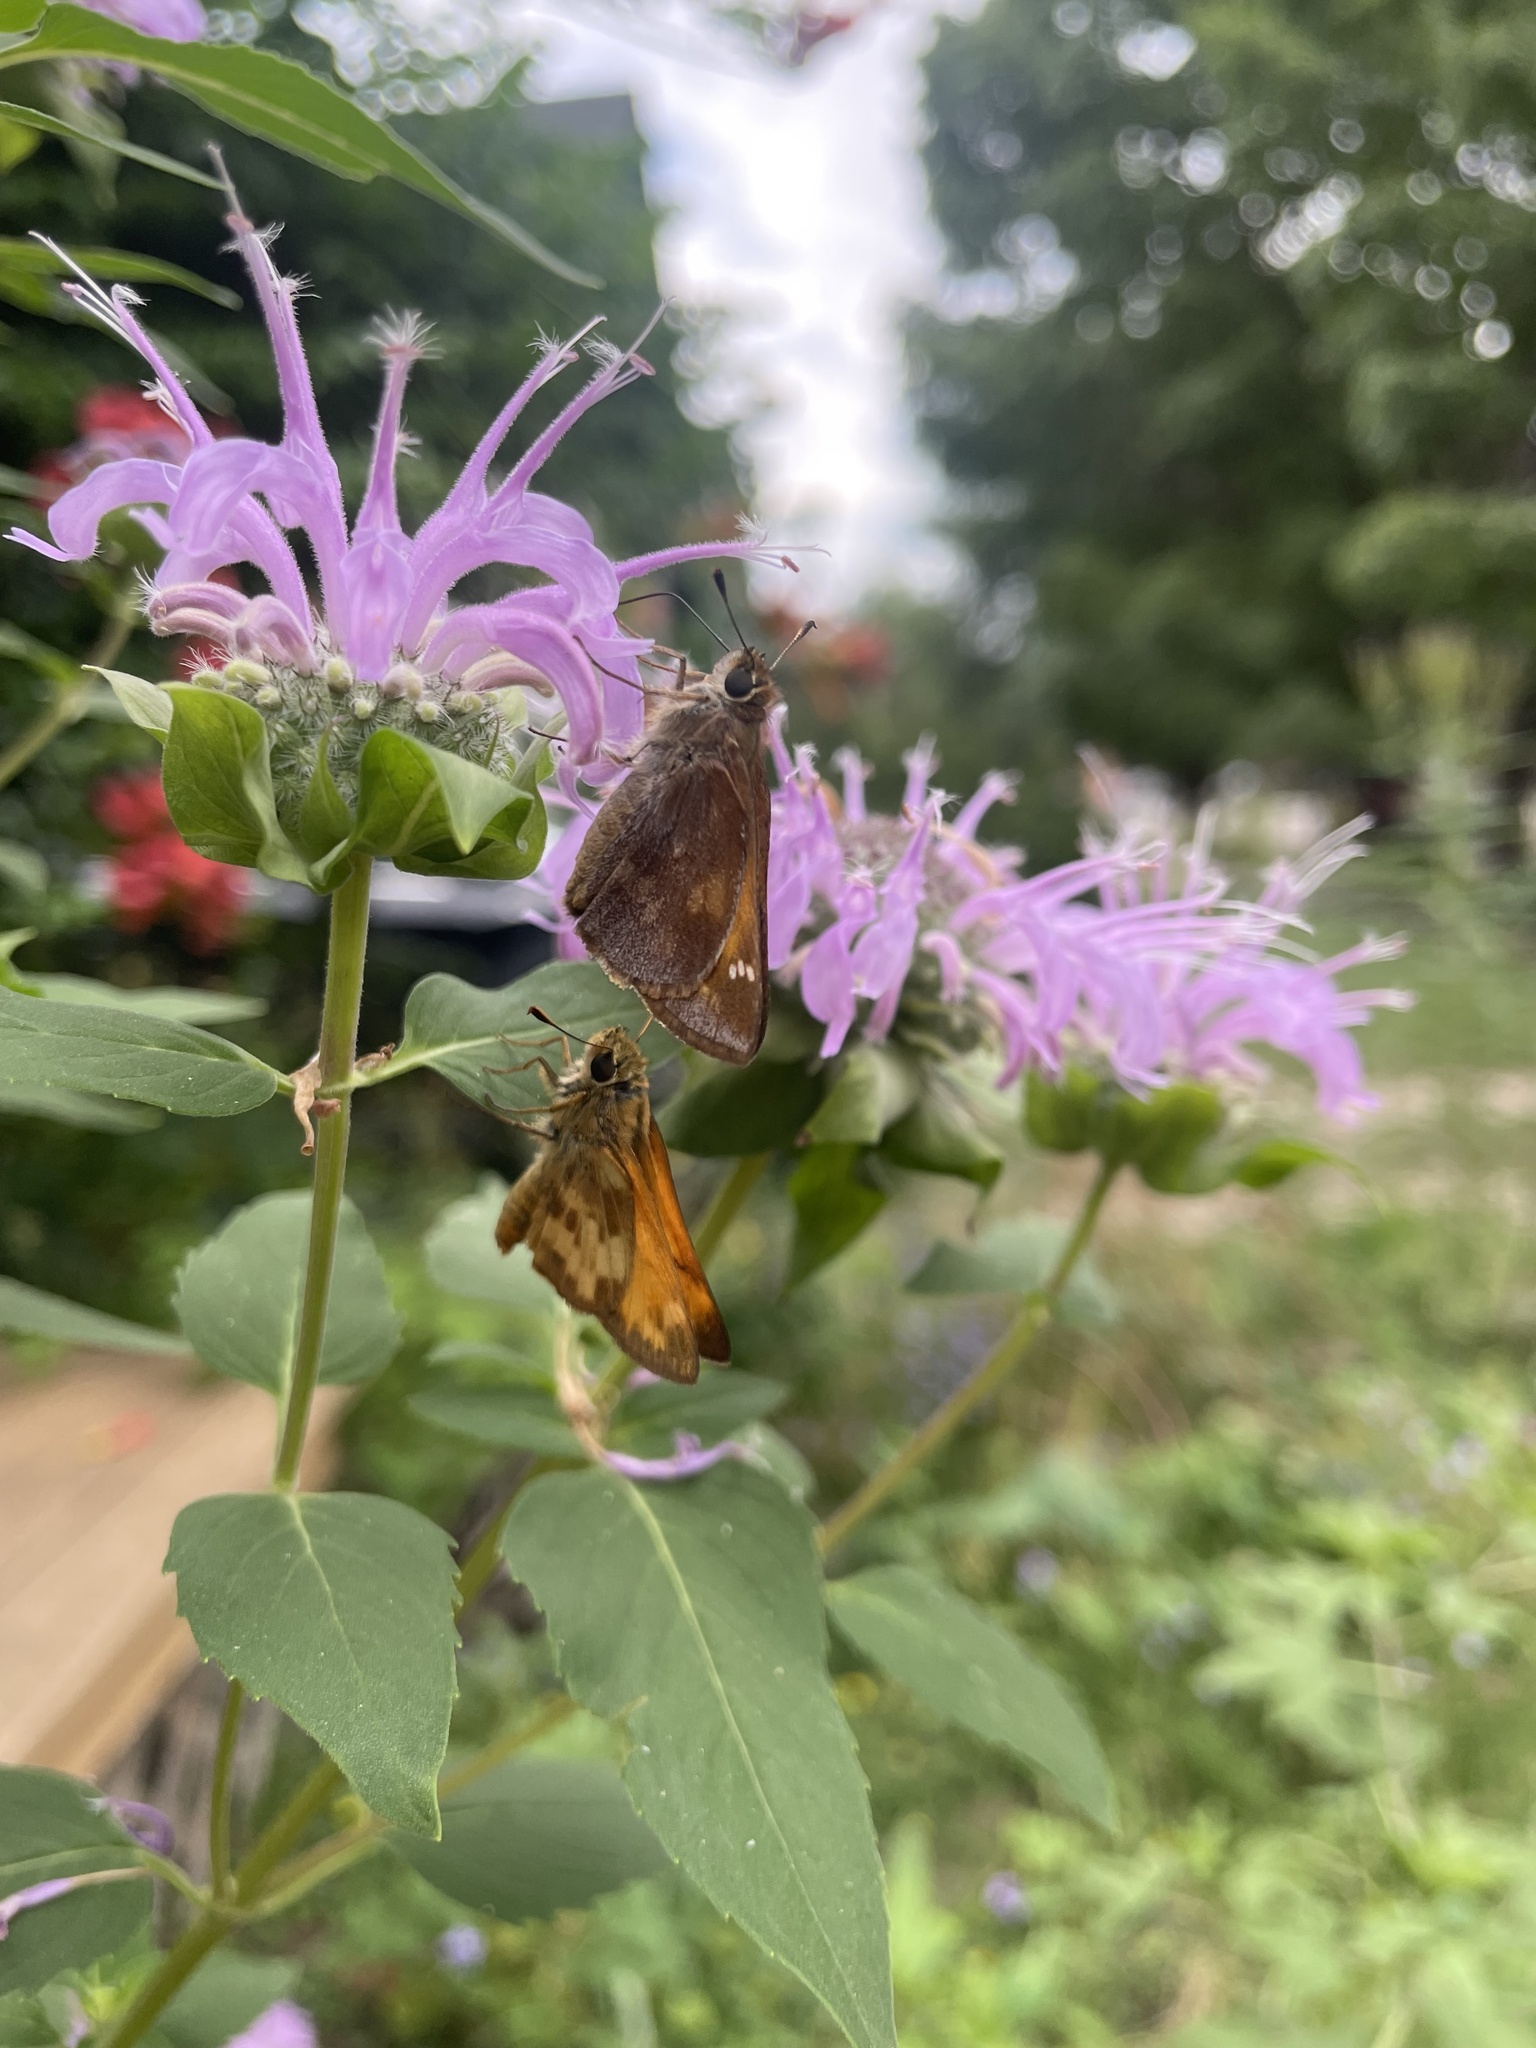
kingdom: Animalia
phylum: Arthropoda
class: Insecta
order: Lepidoptera
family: Hesperiidae
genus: Lon
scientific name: Lon taxiles
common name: Taxiles skipper
